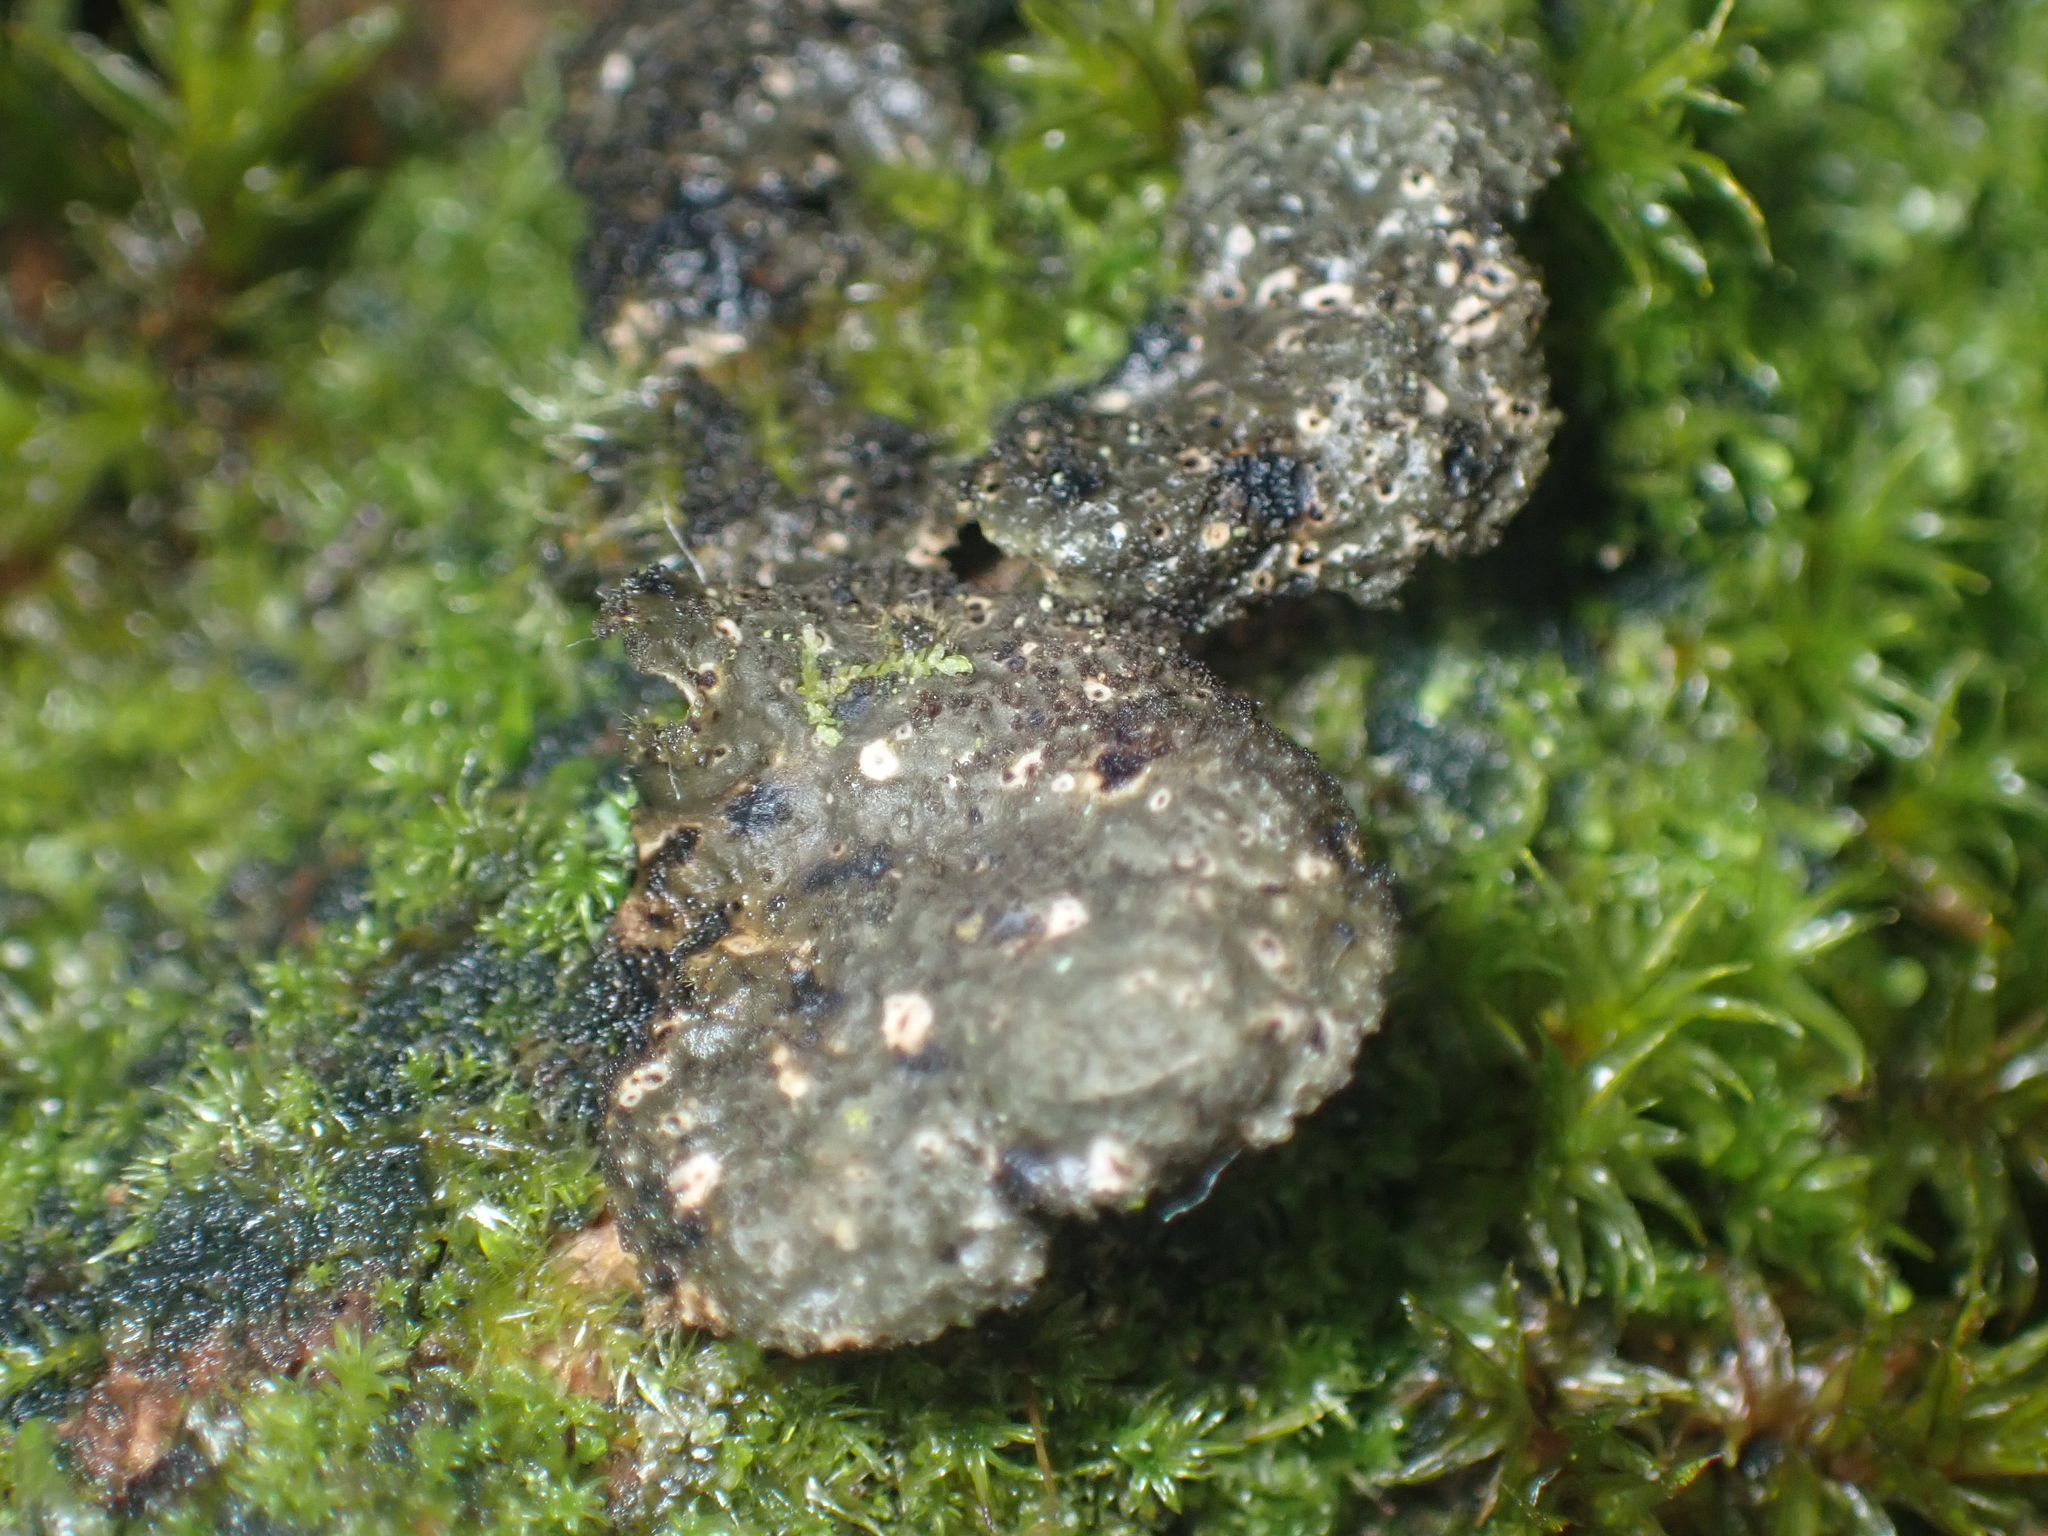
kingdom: Fungi
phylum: Ascomycota
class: Lecanoromycetes
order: Peltigerales
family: Lobariaceae
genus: Sticta
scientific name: Sticta fuliginosa
